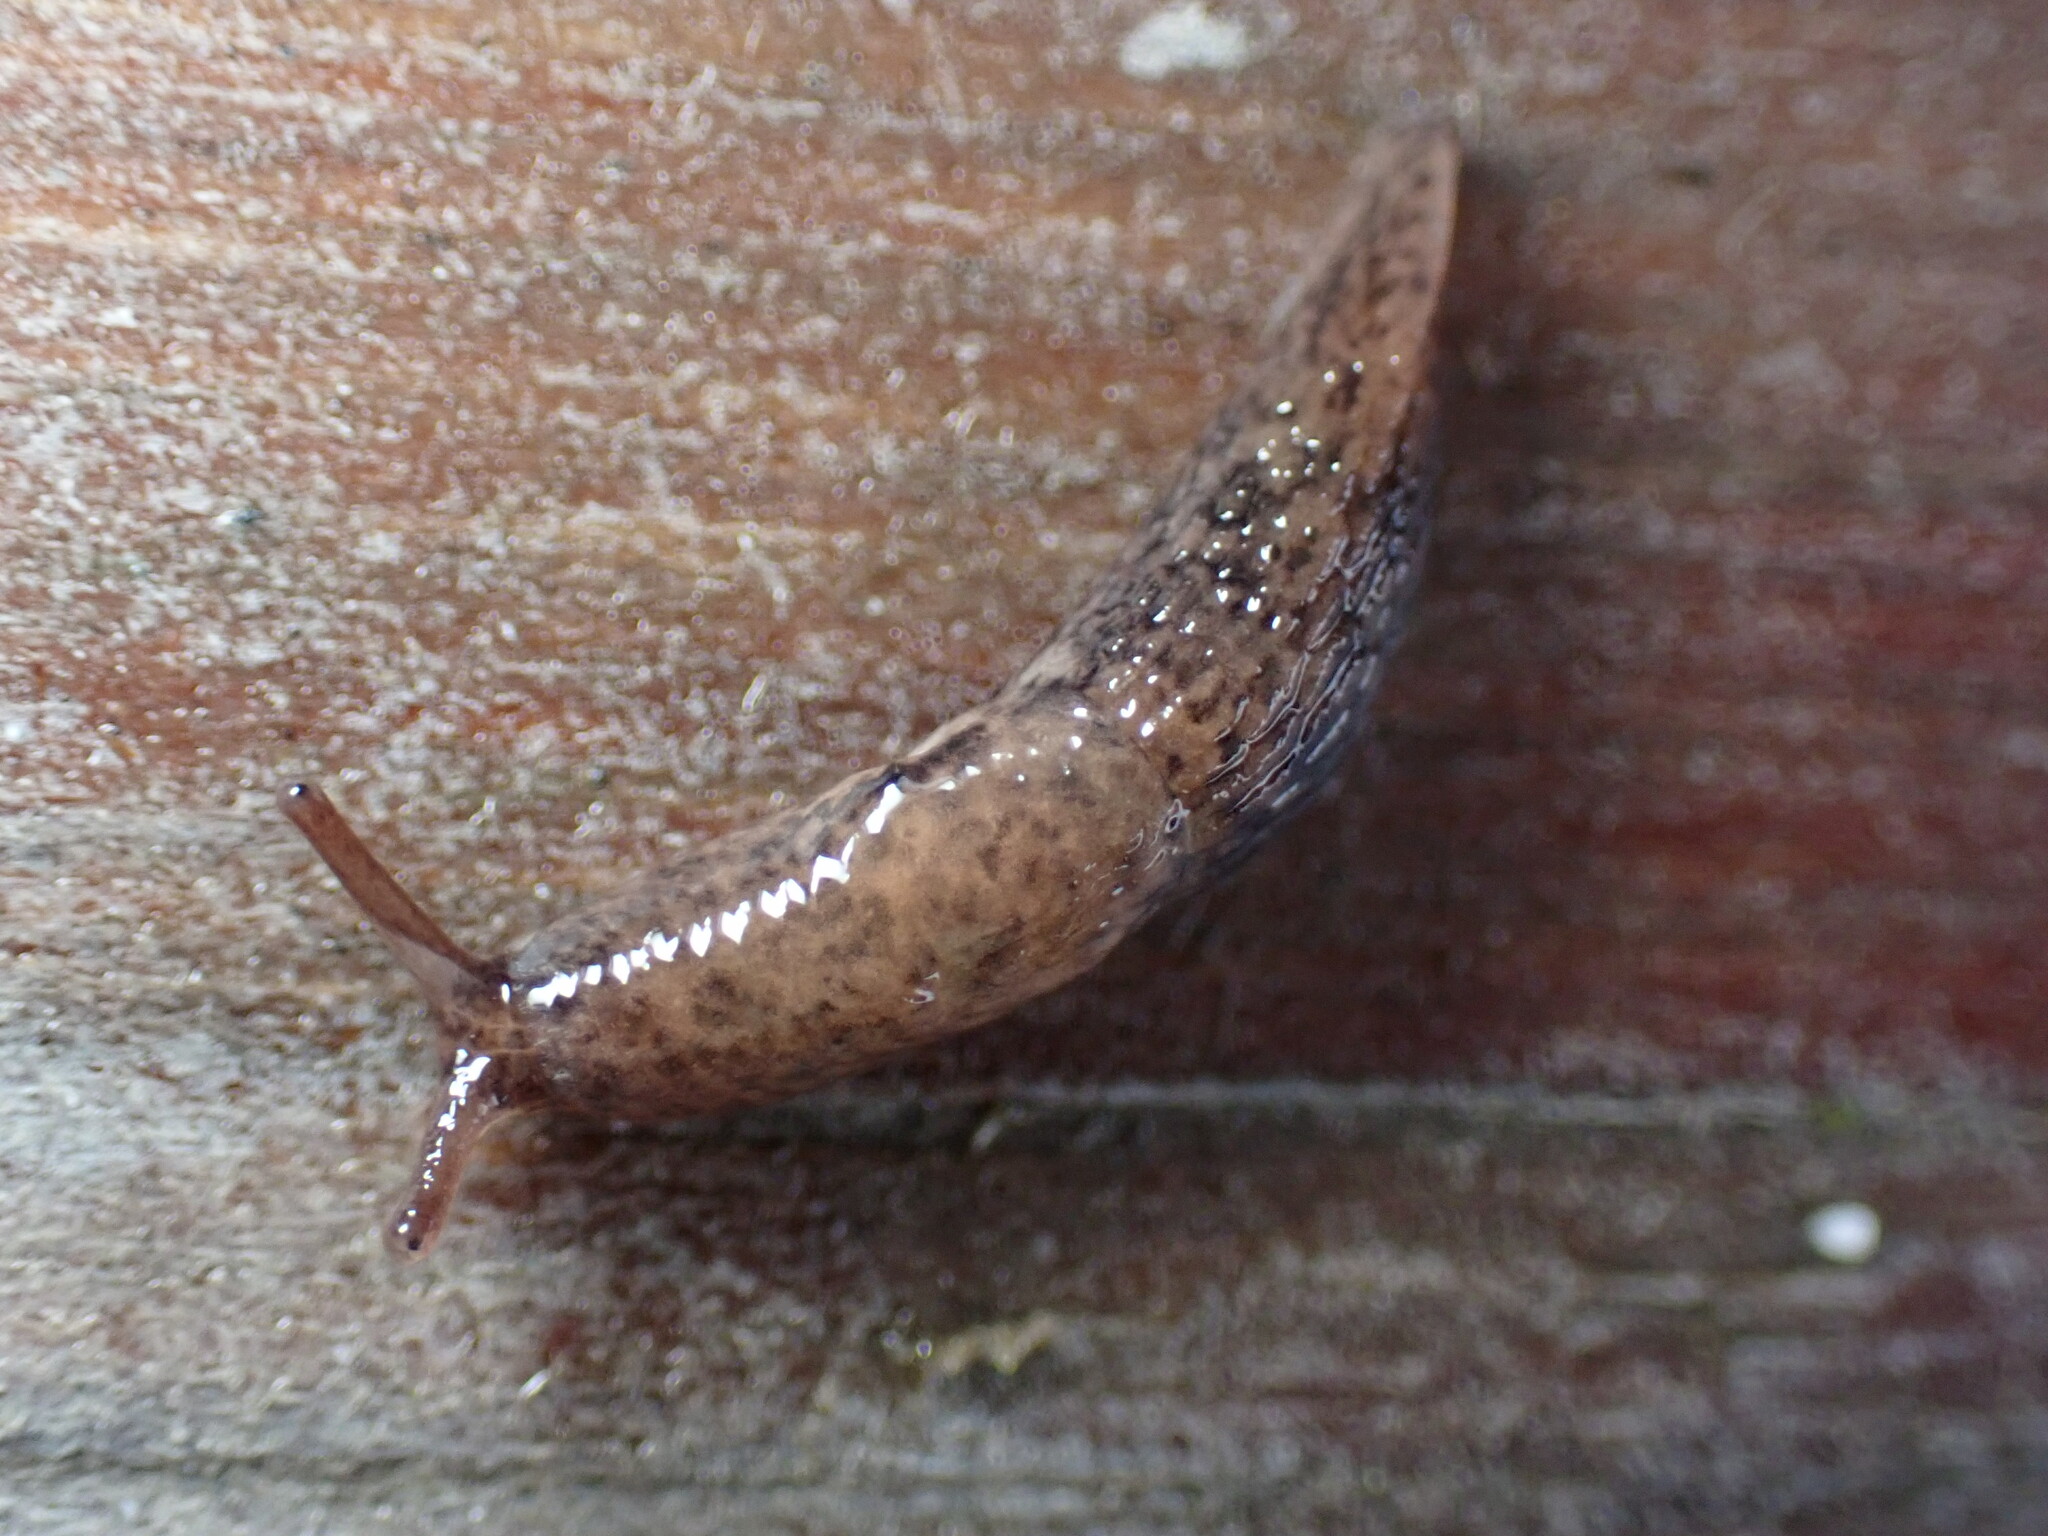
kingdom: Animalia
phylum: Mollusca
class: Gastropoda
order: Stylommatophora
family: Agriolimacidae
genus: Deroceras
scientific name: Deroceras reticulatum
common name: Gray field slug
